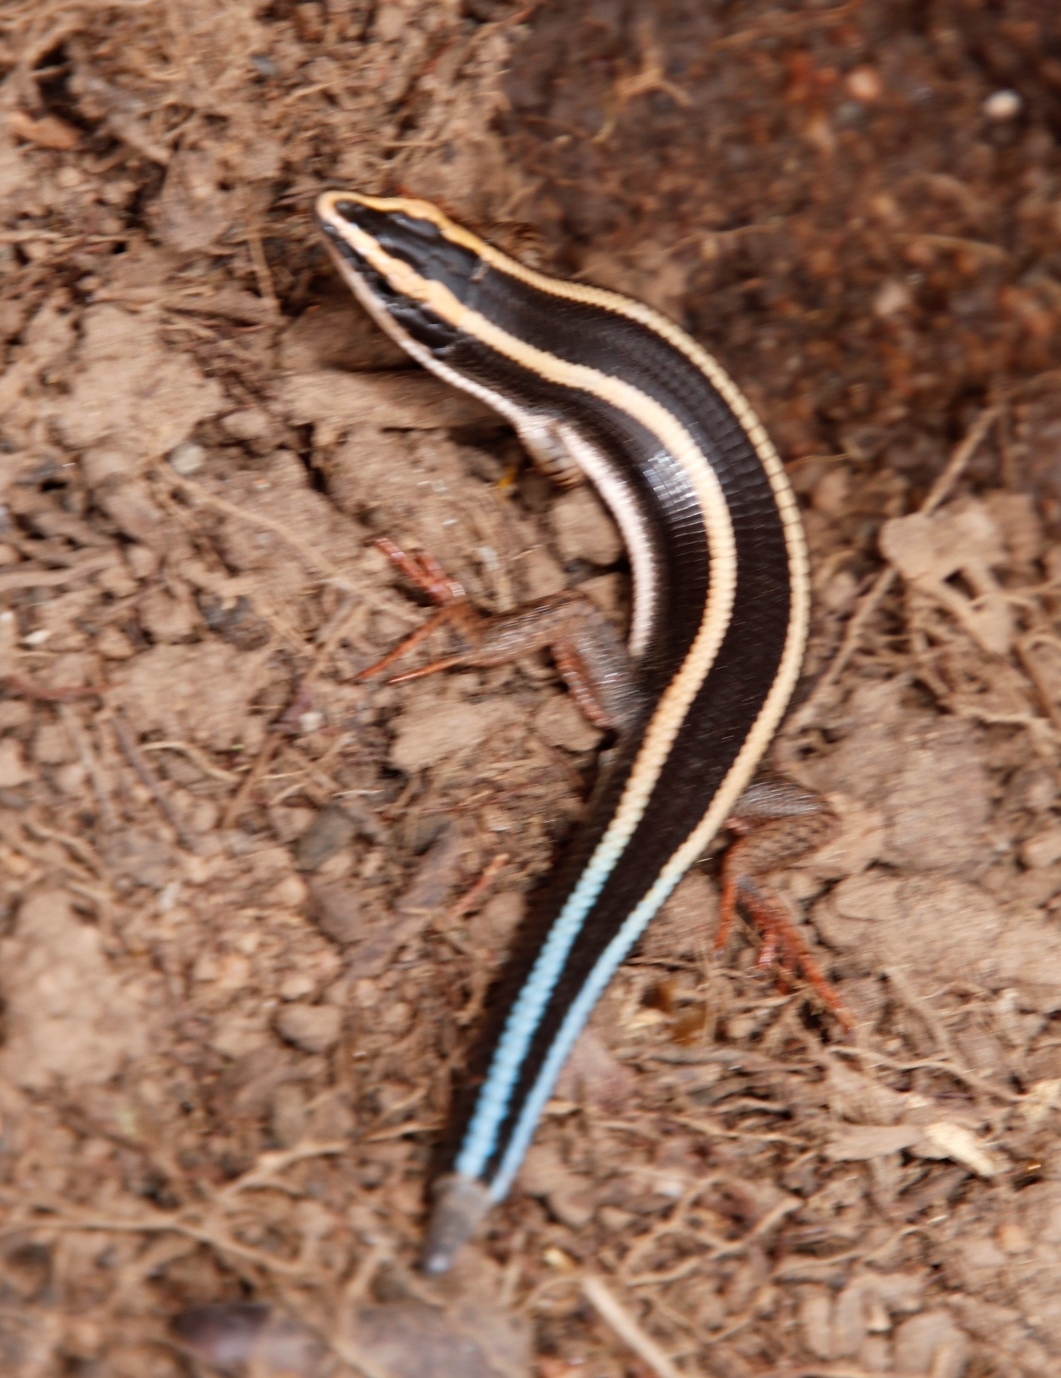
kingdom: Animalia
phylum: Chordata
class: Squamata
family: Gerrhosauridae
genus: Cordylosaurus
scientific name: Cordylosaurus subtessellatus
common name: Dwarf plated lizard
